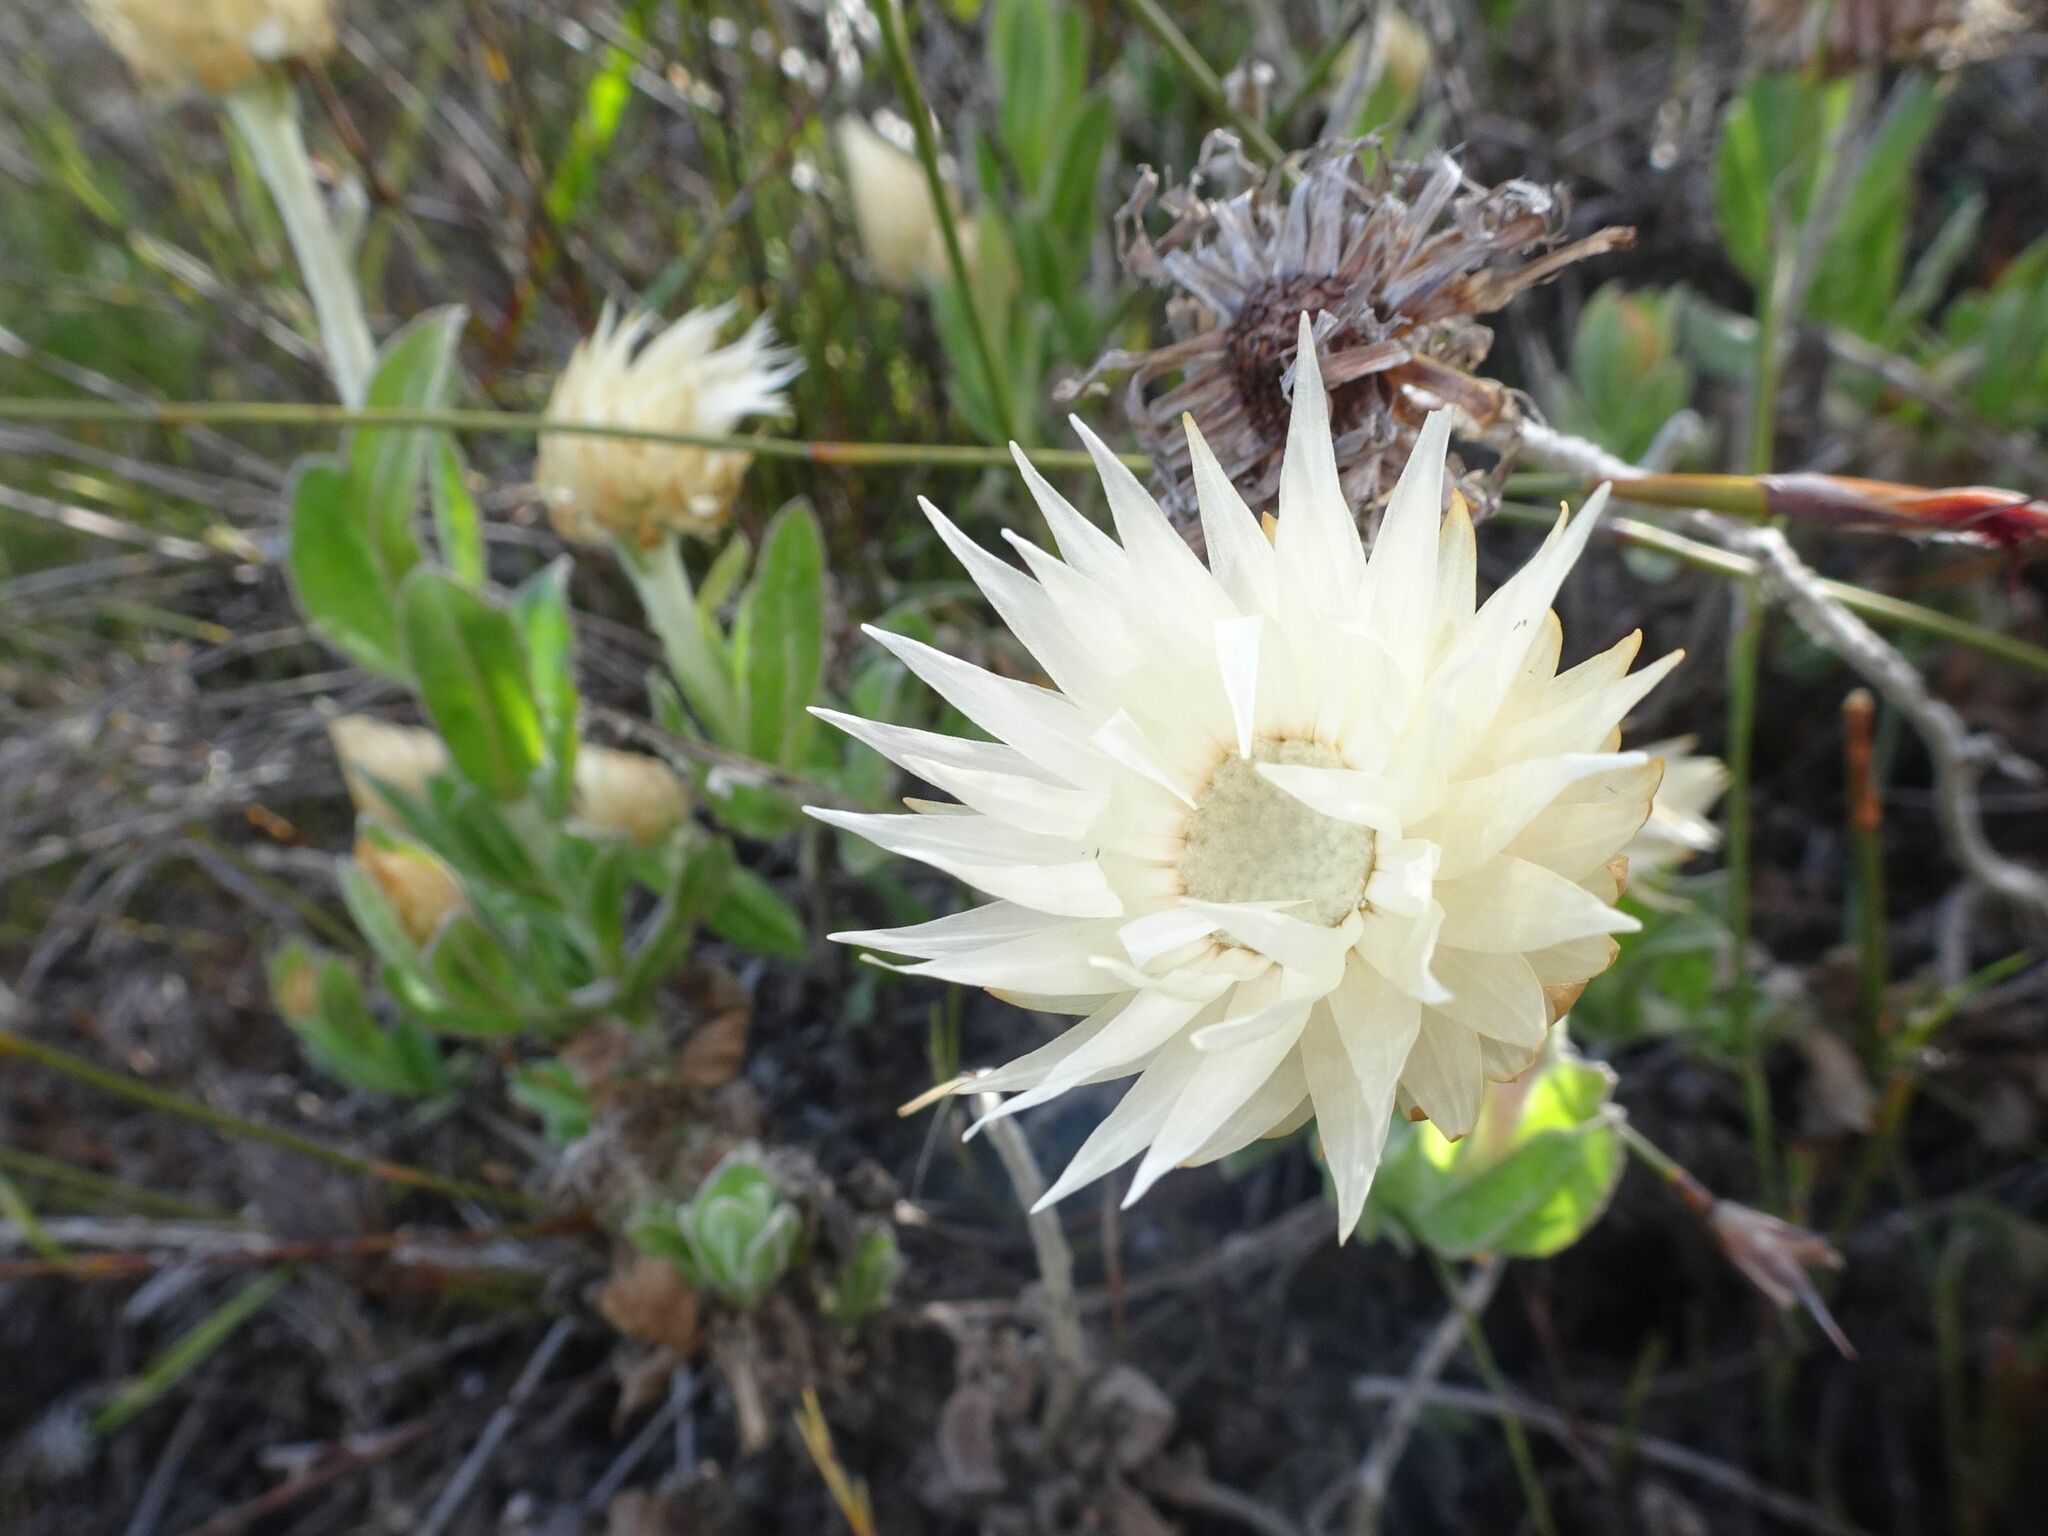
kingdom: Plantae
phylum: Tracheophyta
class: Magnoliopsida
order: Asterales
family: Asteraceae
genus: Syncarpha
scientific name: Syncarpha speciosissima
